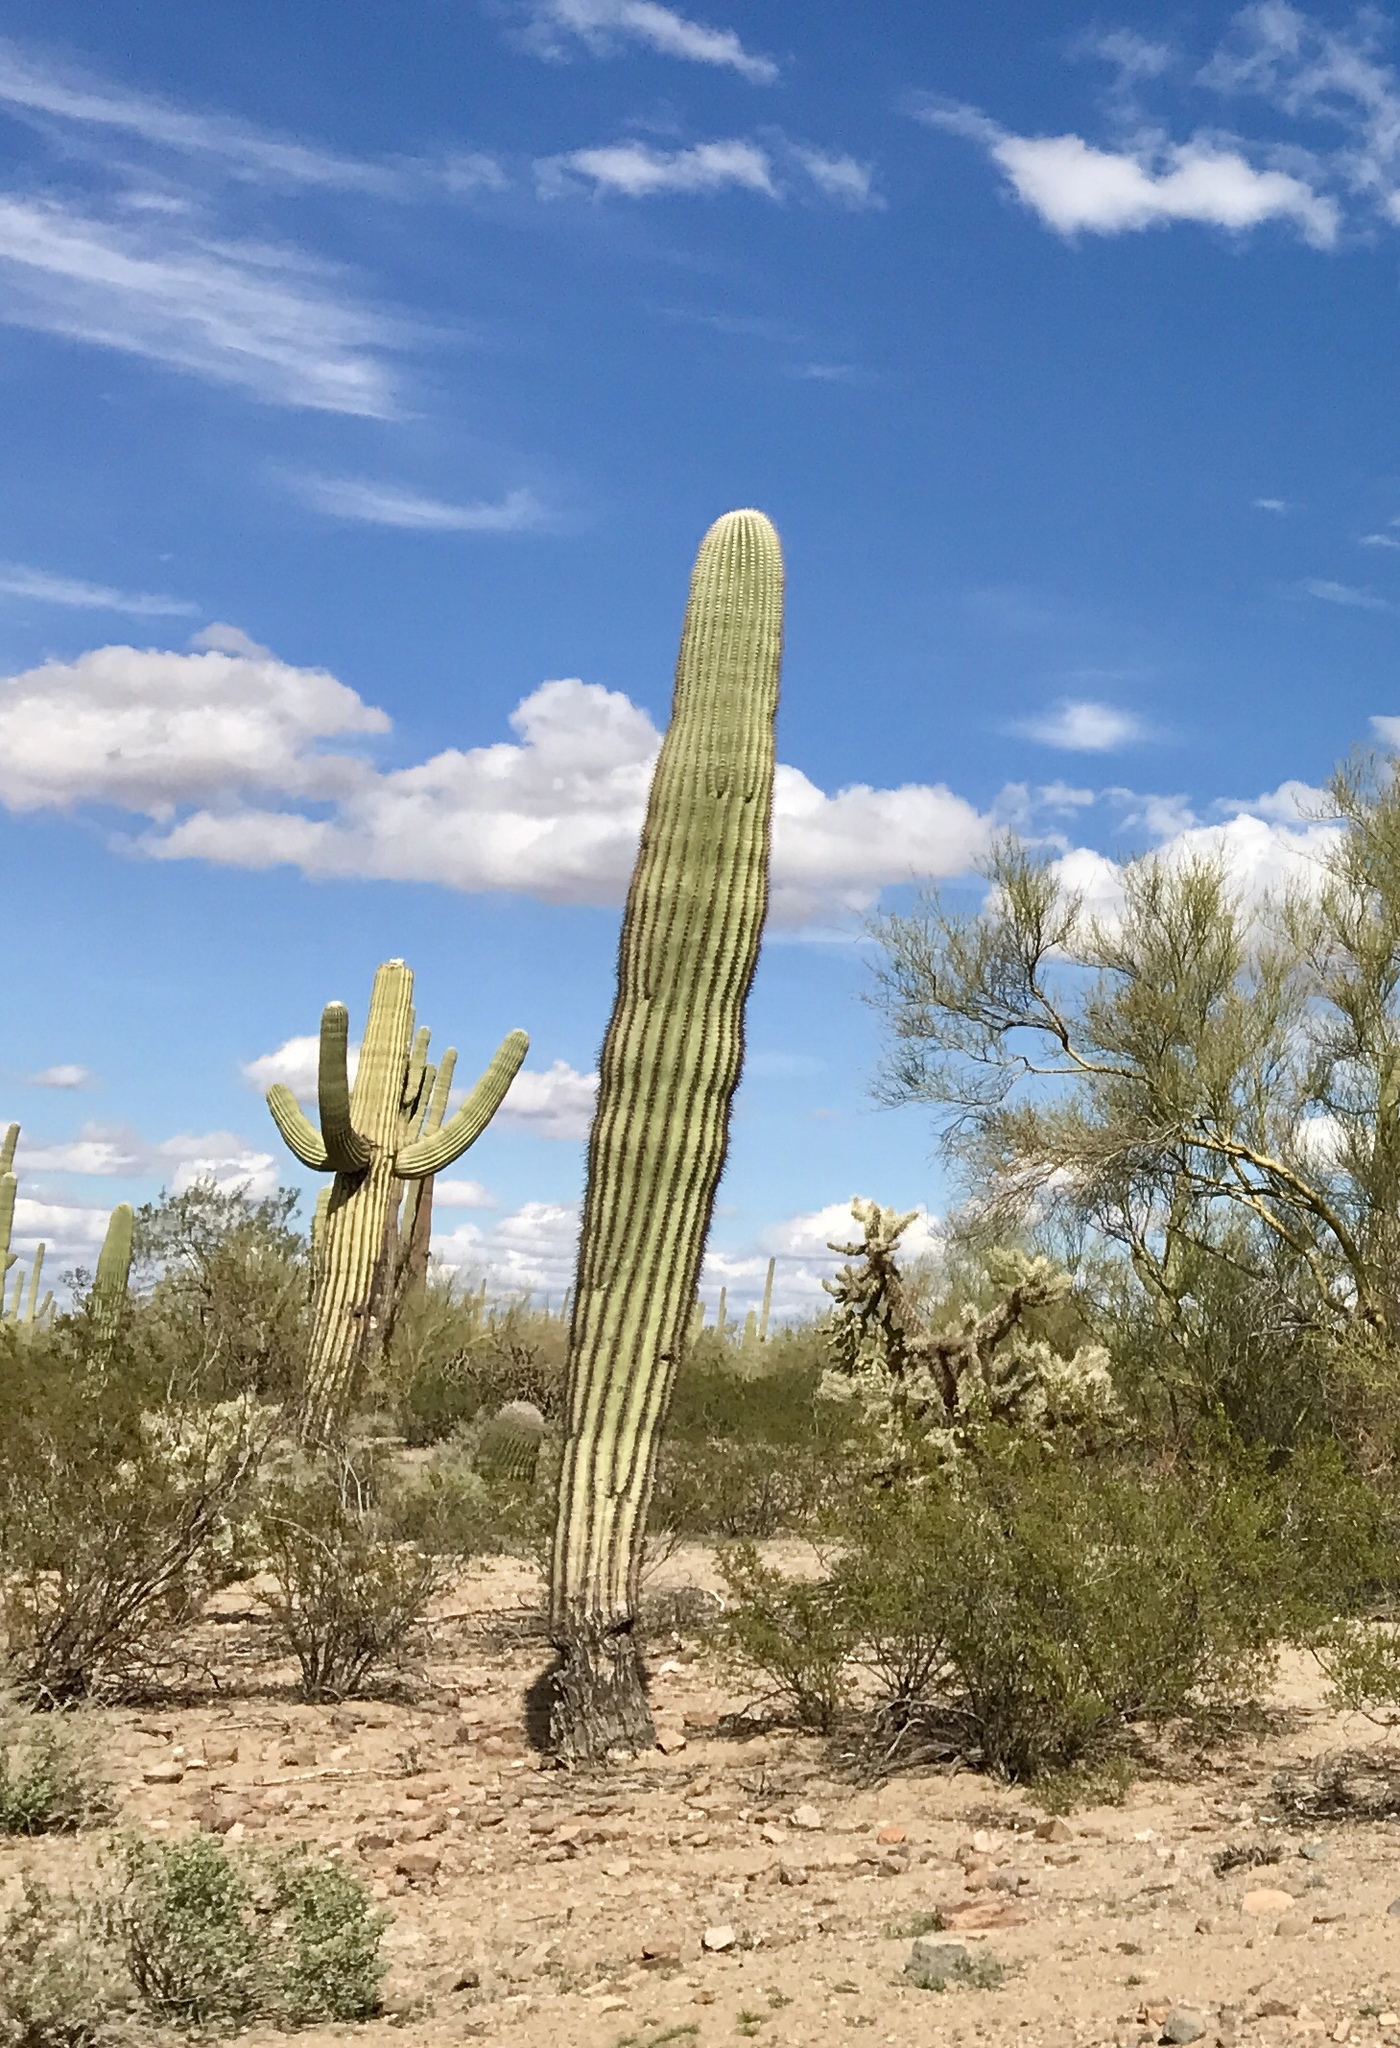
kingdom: Plantae
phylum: Tracheophyta
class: Magnoliopsida
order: Caryophyllales
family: Cactaceae
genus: Carnegiea
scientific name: Carnegiea gigantea
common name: Saguaro
